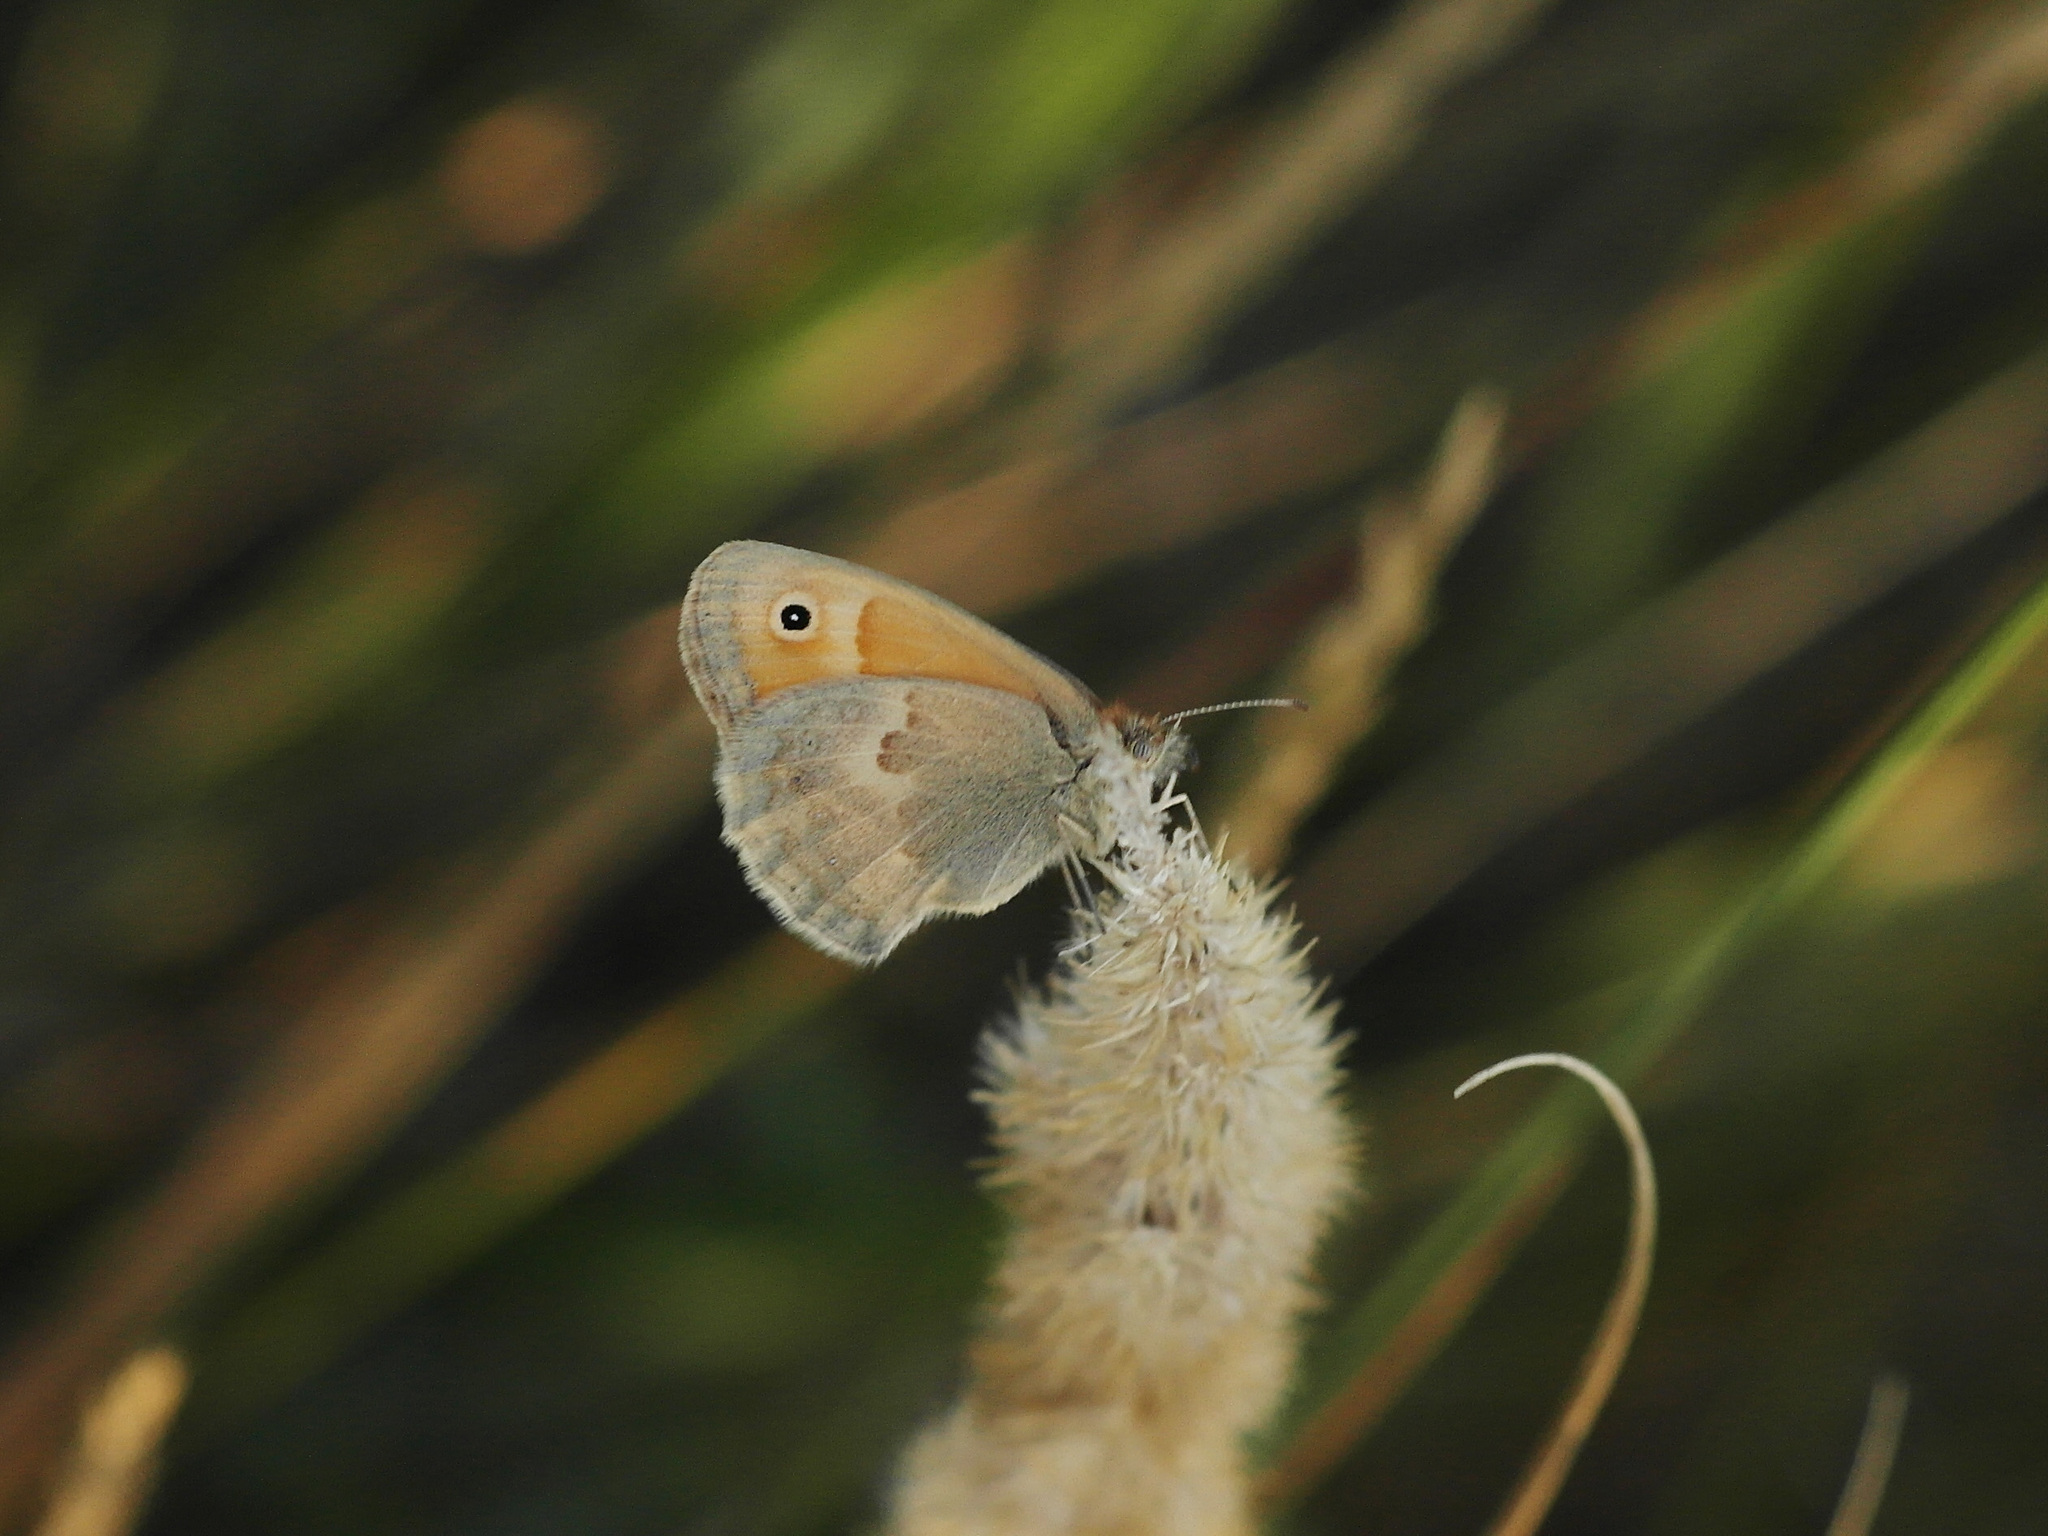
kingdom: Animalia
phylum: Arthropoda
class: Insecta
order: Lepidoptera
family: Nymphalidae
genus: Coenonympha
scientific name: Coenonympha pamphilus
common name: Small heath
